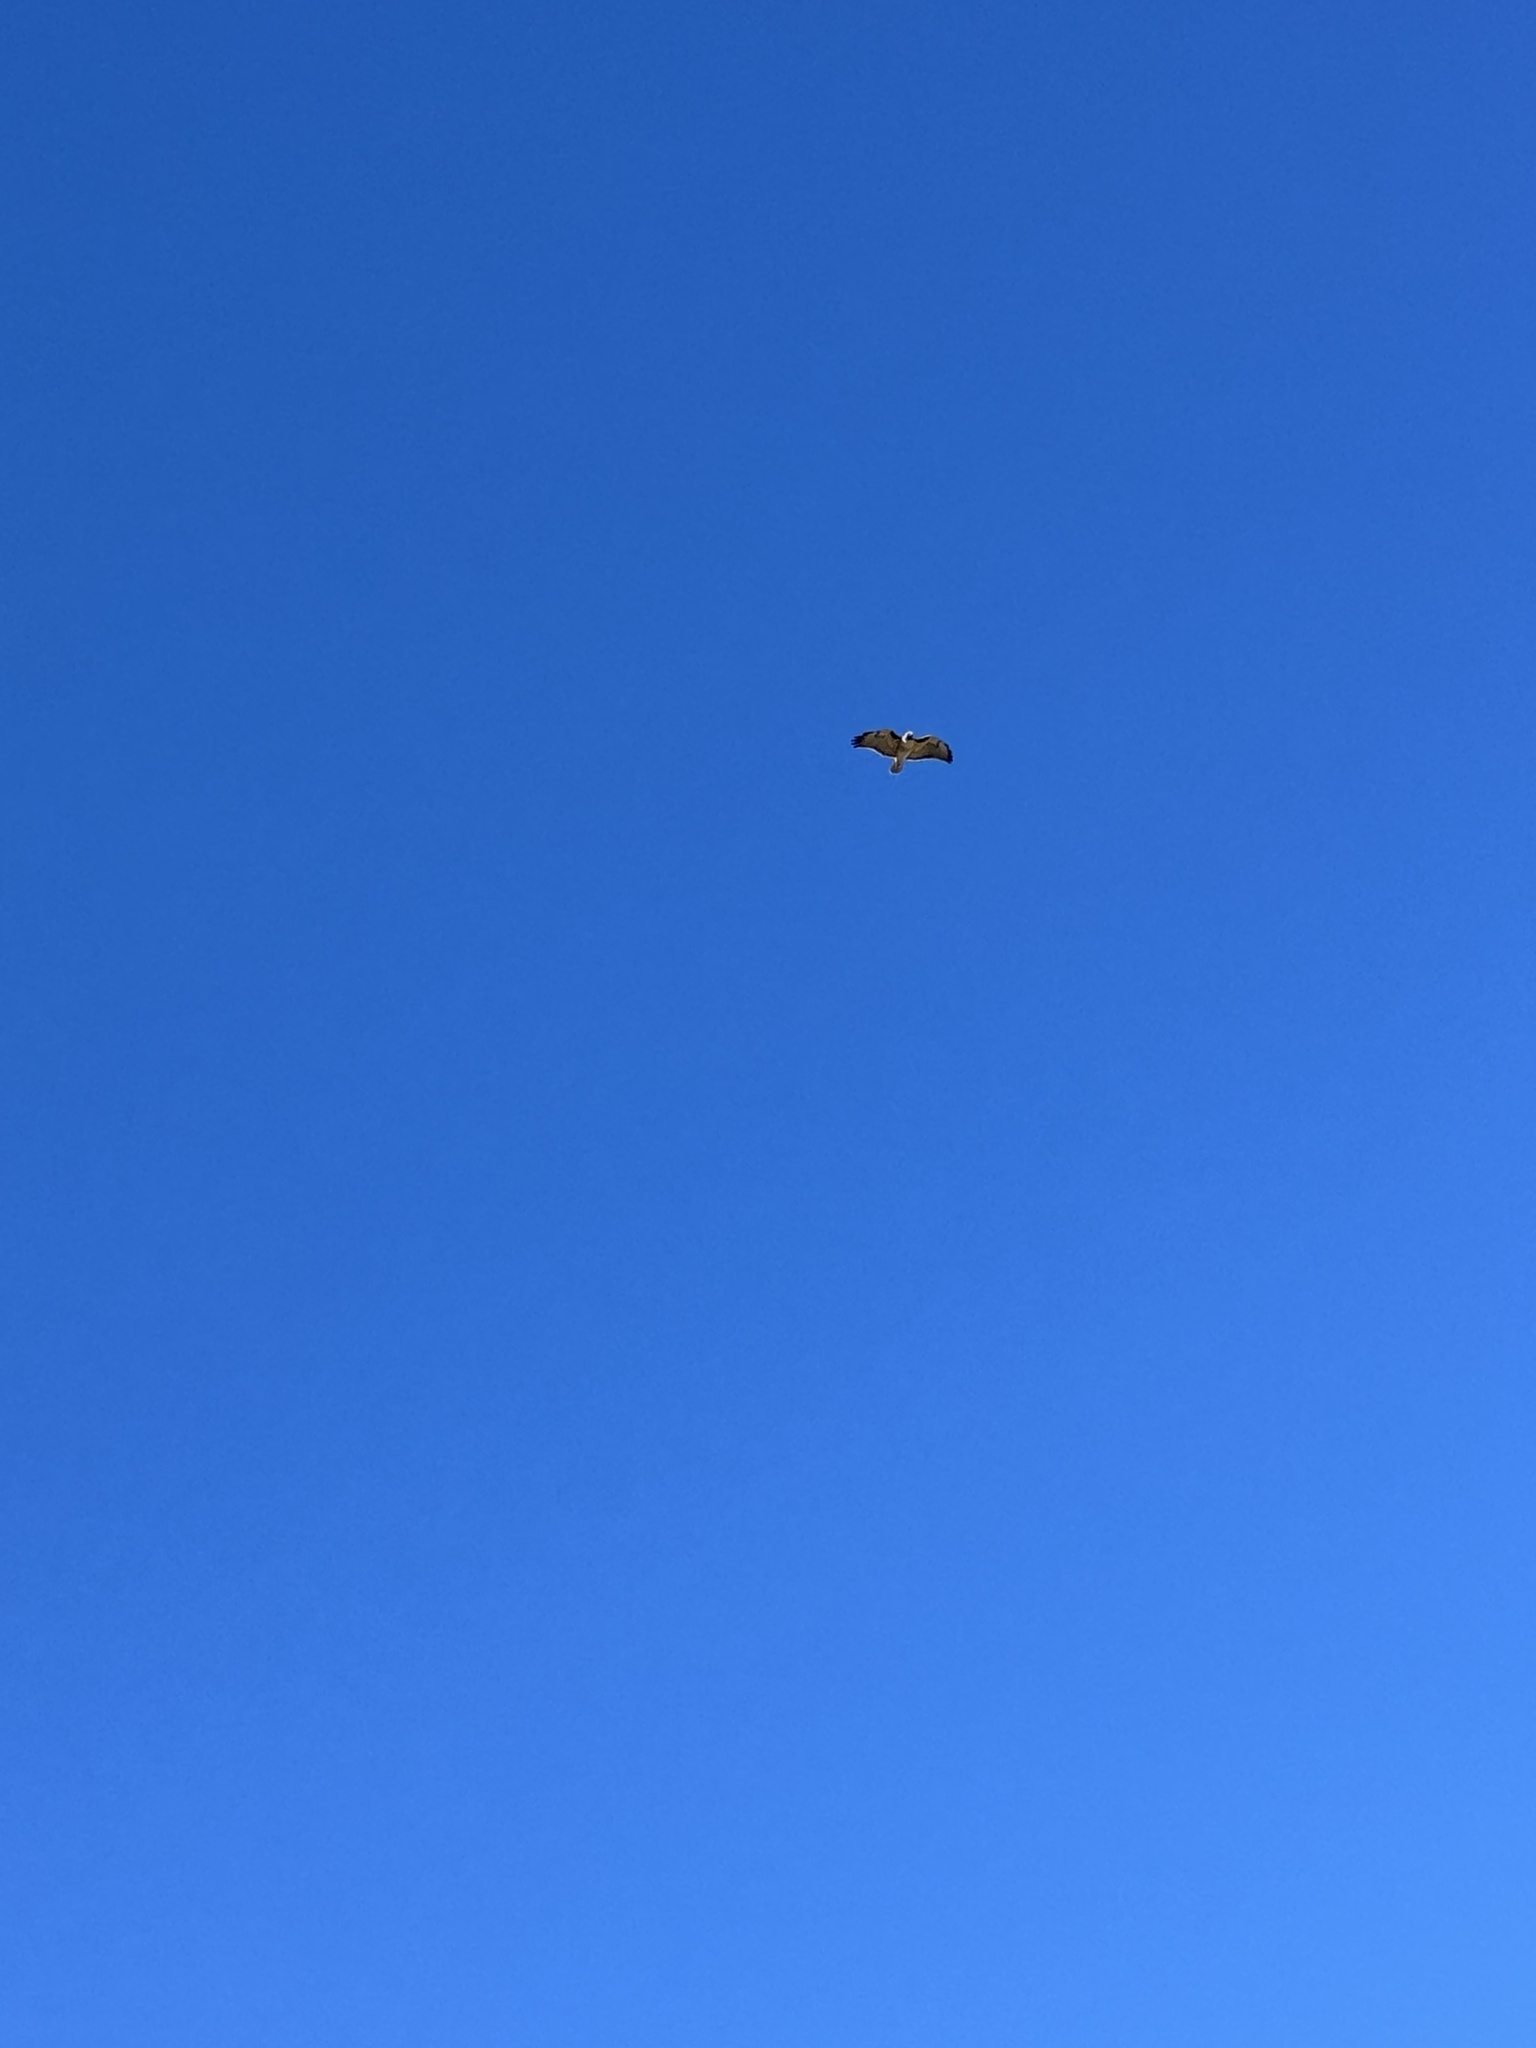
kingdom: Animalia
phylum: Chordata
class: Aves
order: Accipitriformes
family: Accipitridae
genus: Buteo
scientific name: Buteo jamaicensis
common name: Red-tailed hawk
